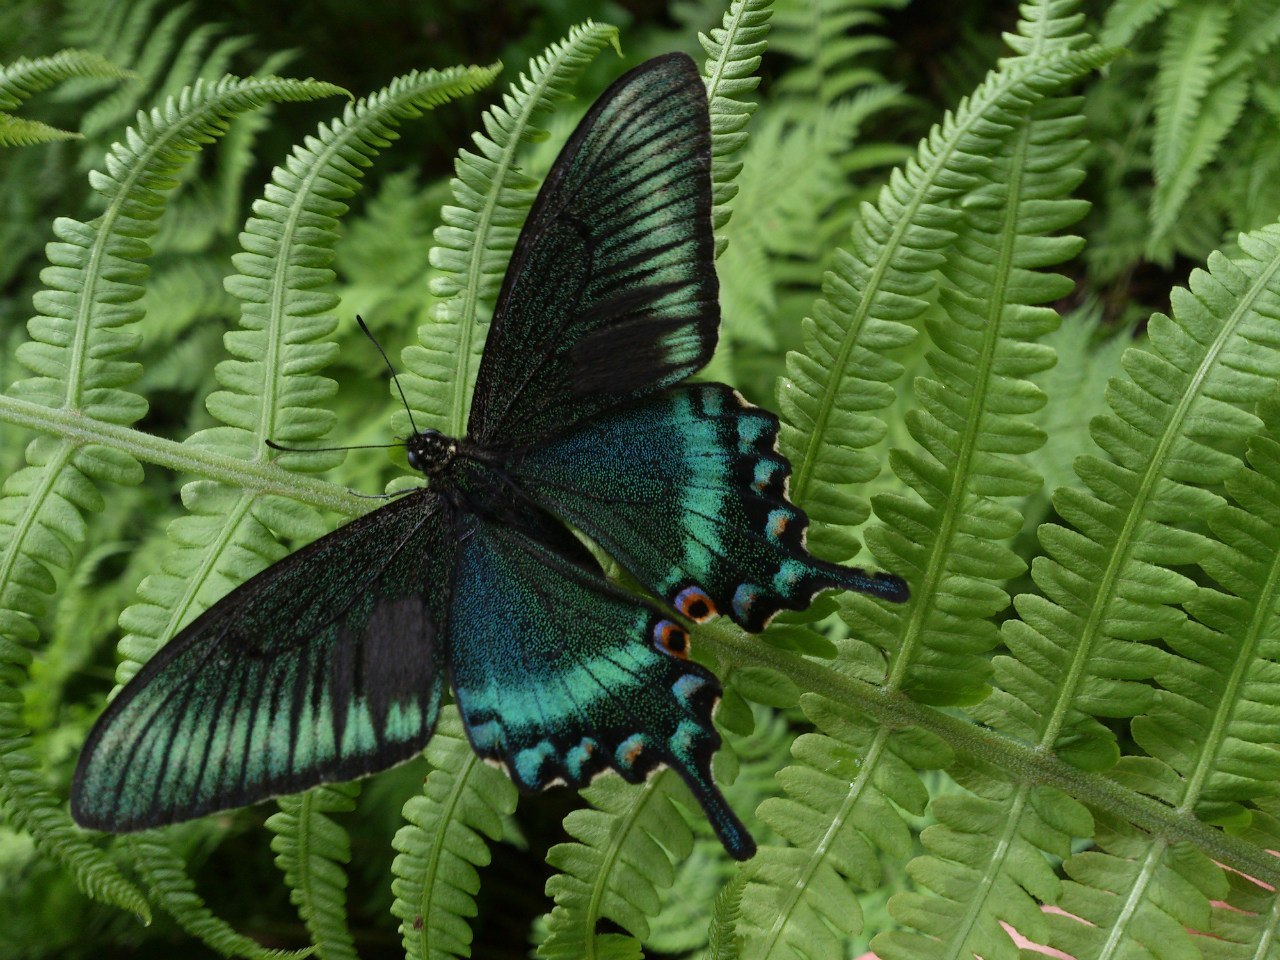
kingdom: Animalia
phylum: Arthropoda
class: Insecta
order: Lepidoptera
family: Papilionidae
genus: Papilio
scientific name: Papilio maackii
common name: Alpine black swallowtail
